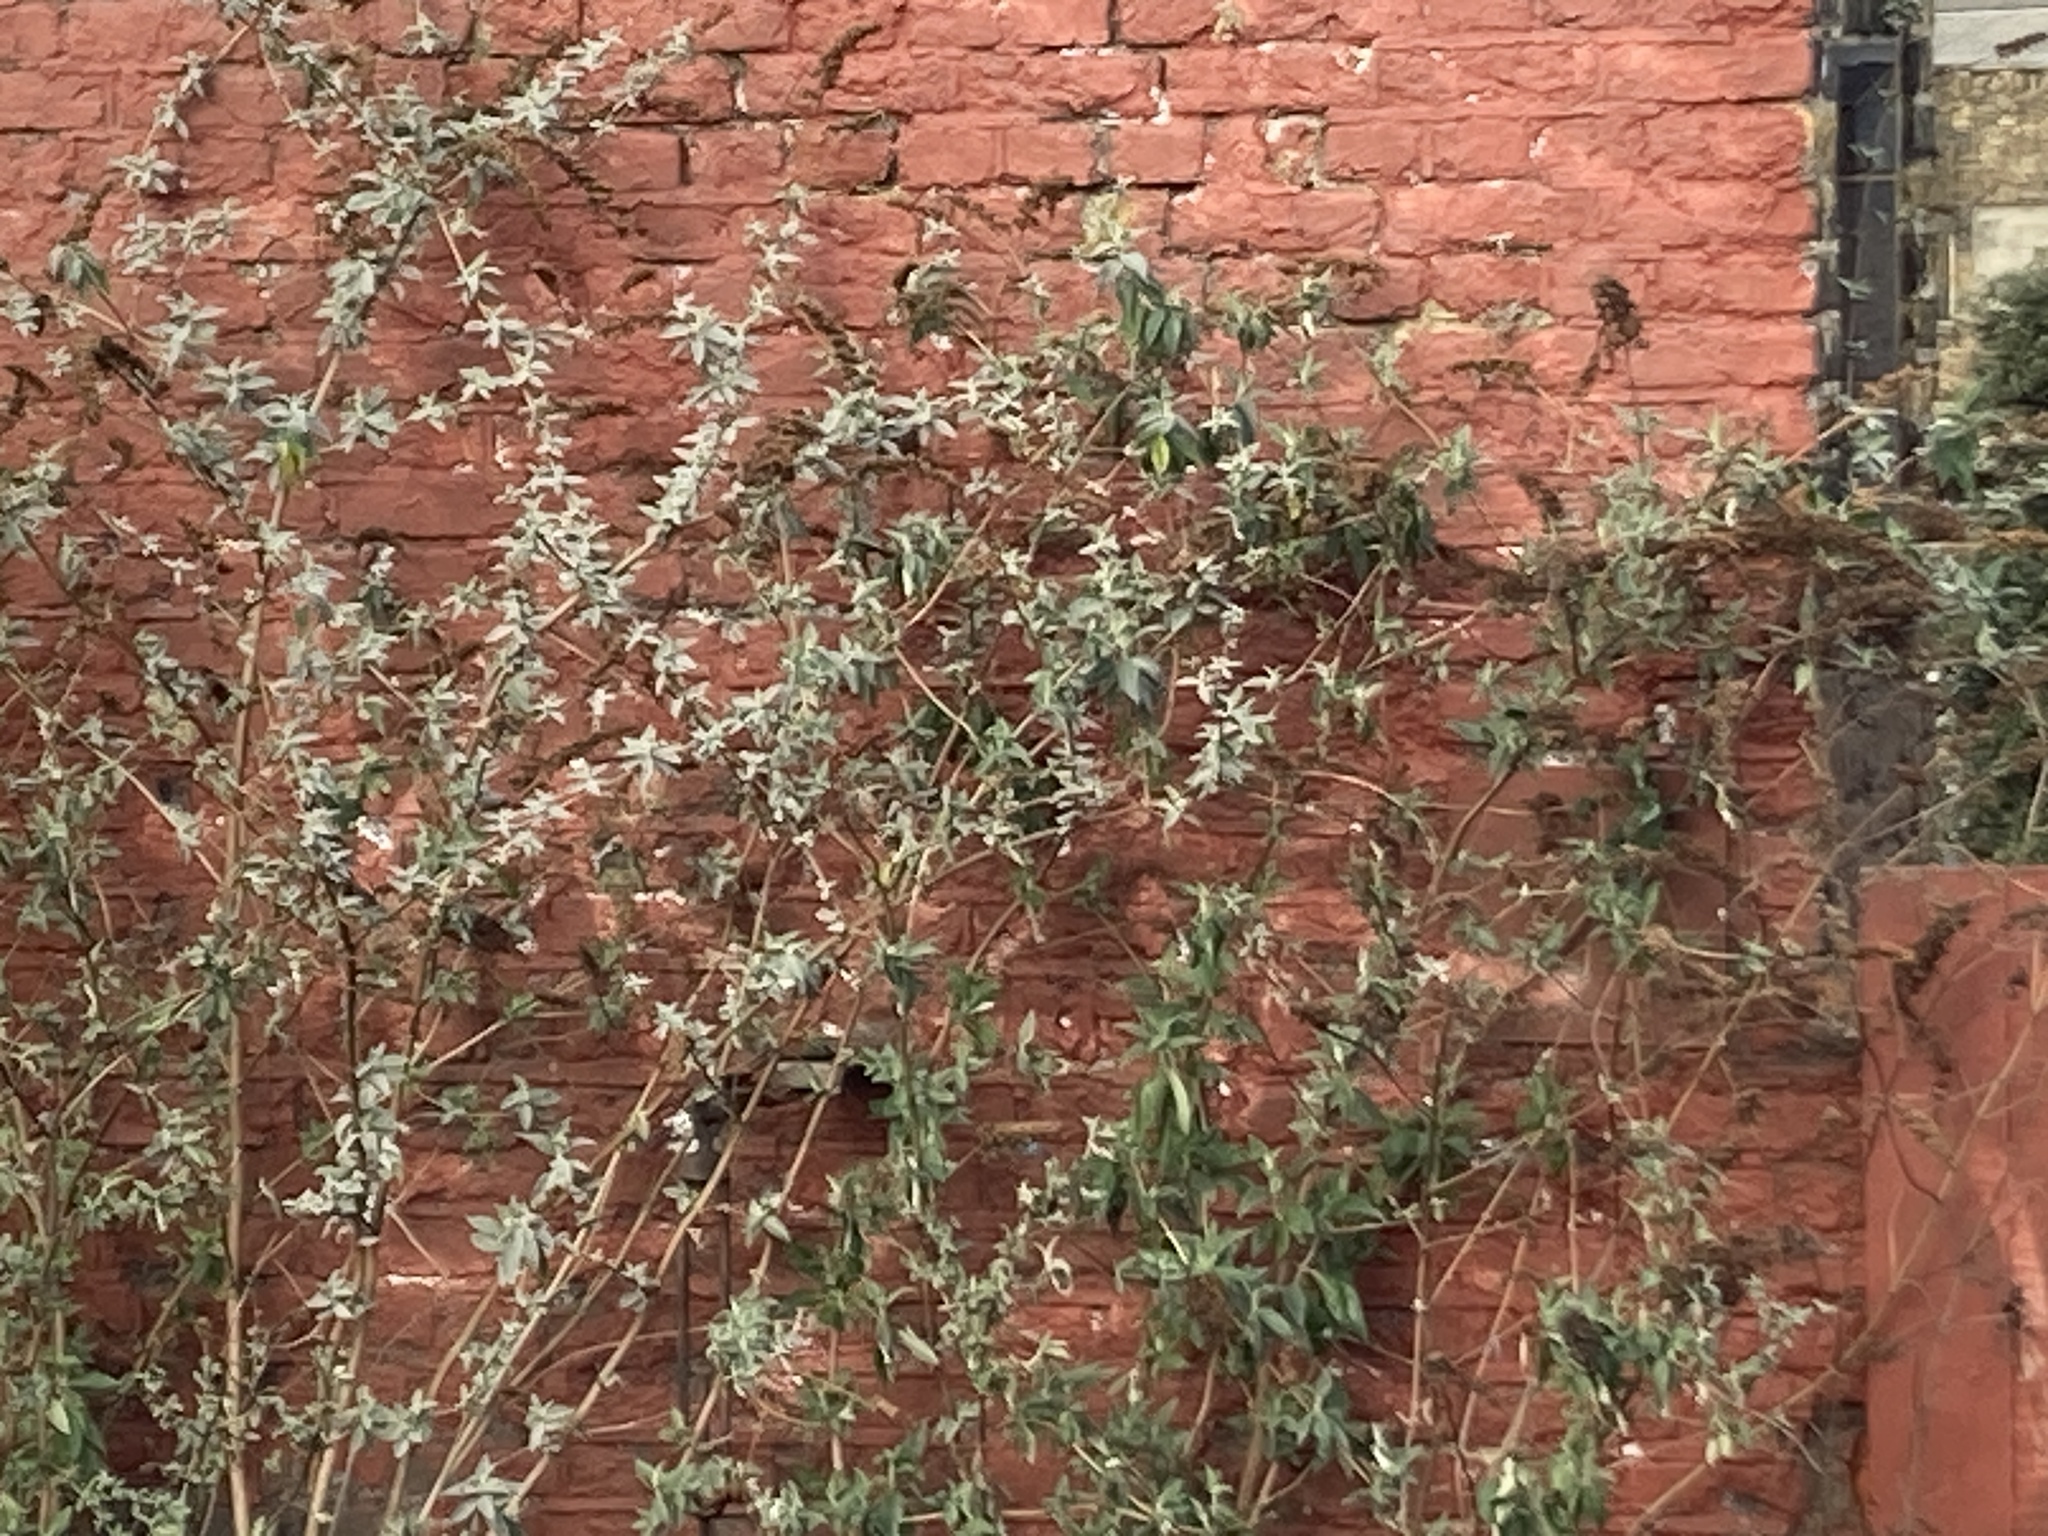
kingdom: Plantae
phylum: Tracheophyta
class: Magnoliopsida
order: Lamiales
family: Scrophulariaceae
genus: Buddleja
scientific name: Buddleja davidii
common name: Butterfly-bush
